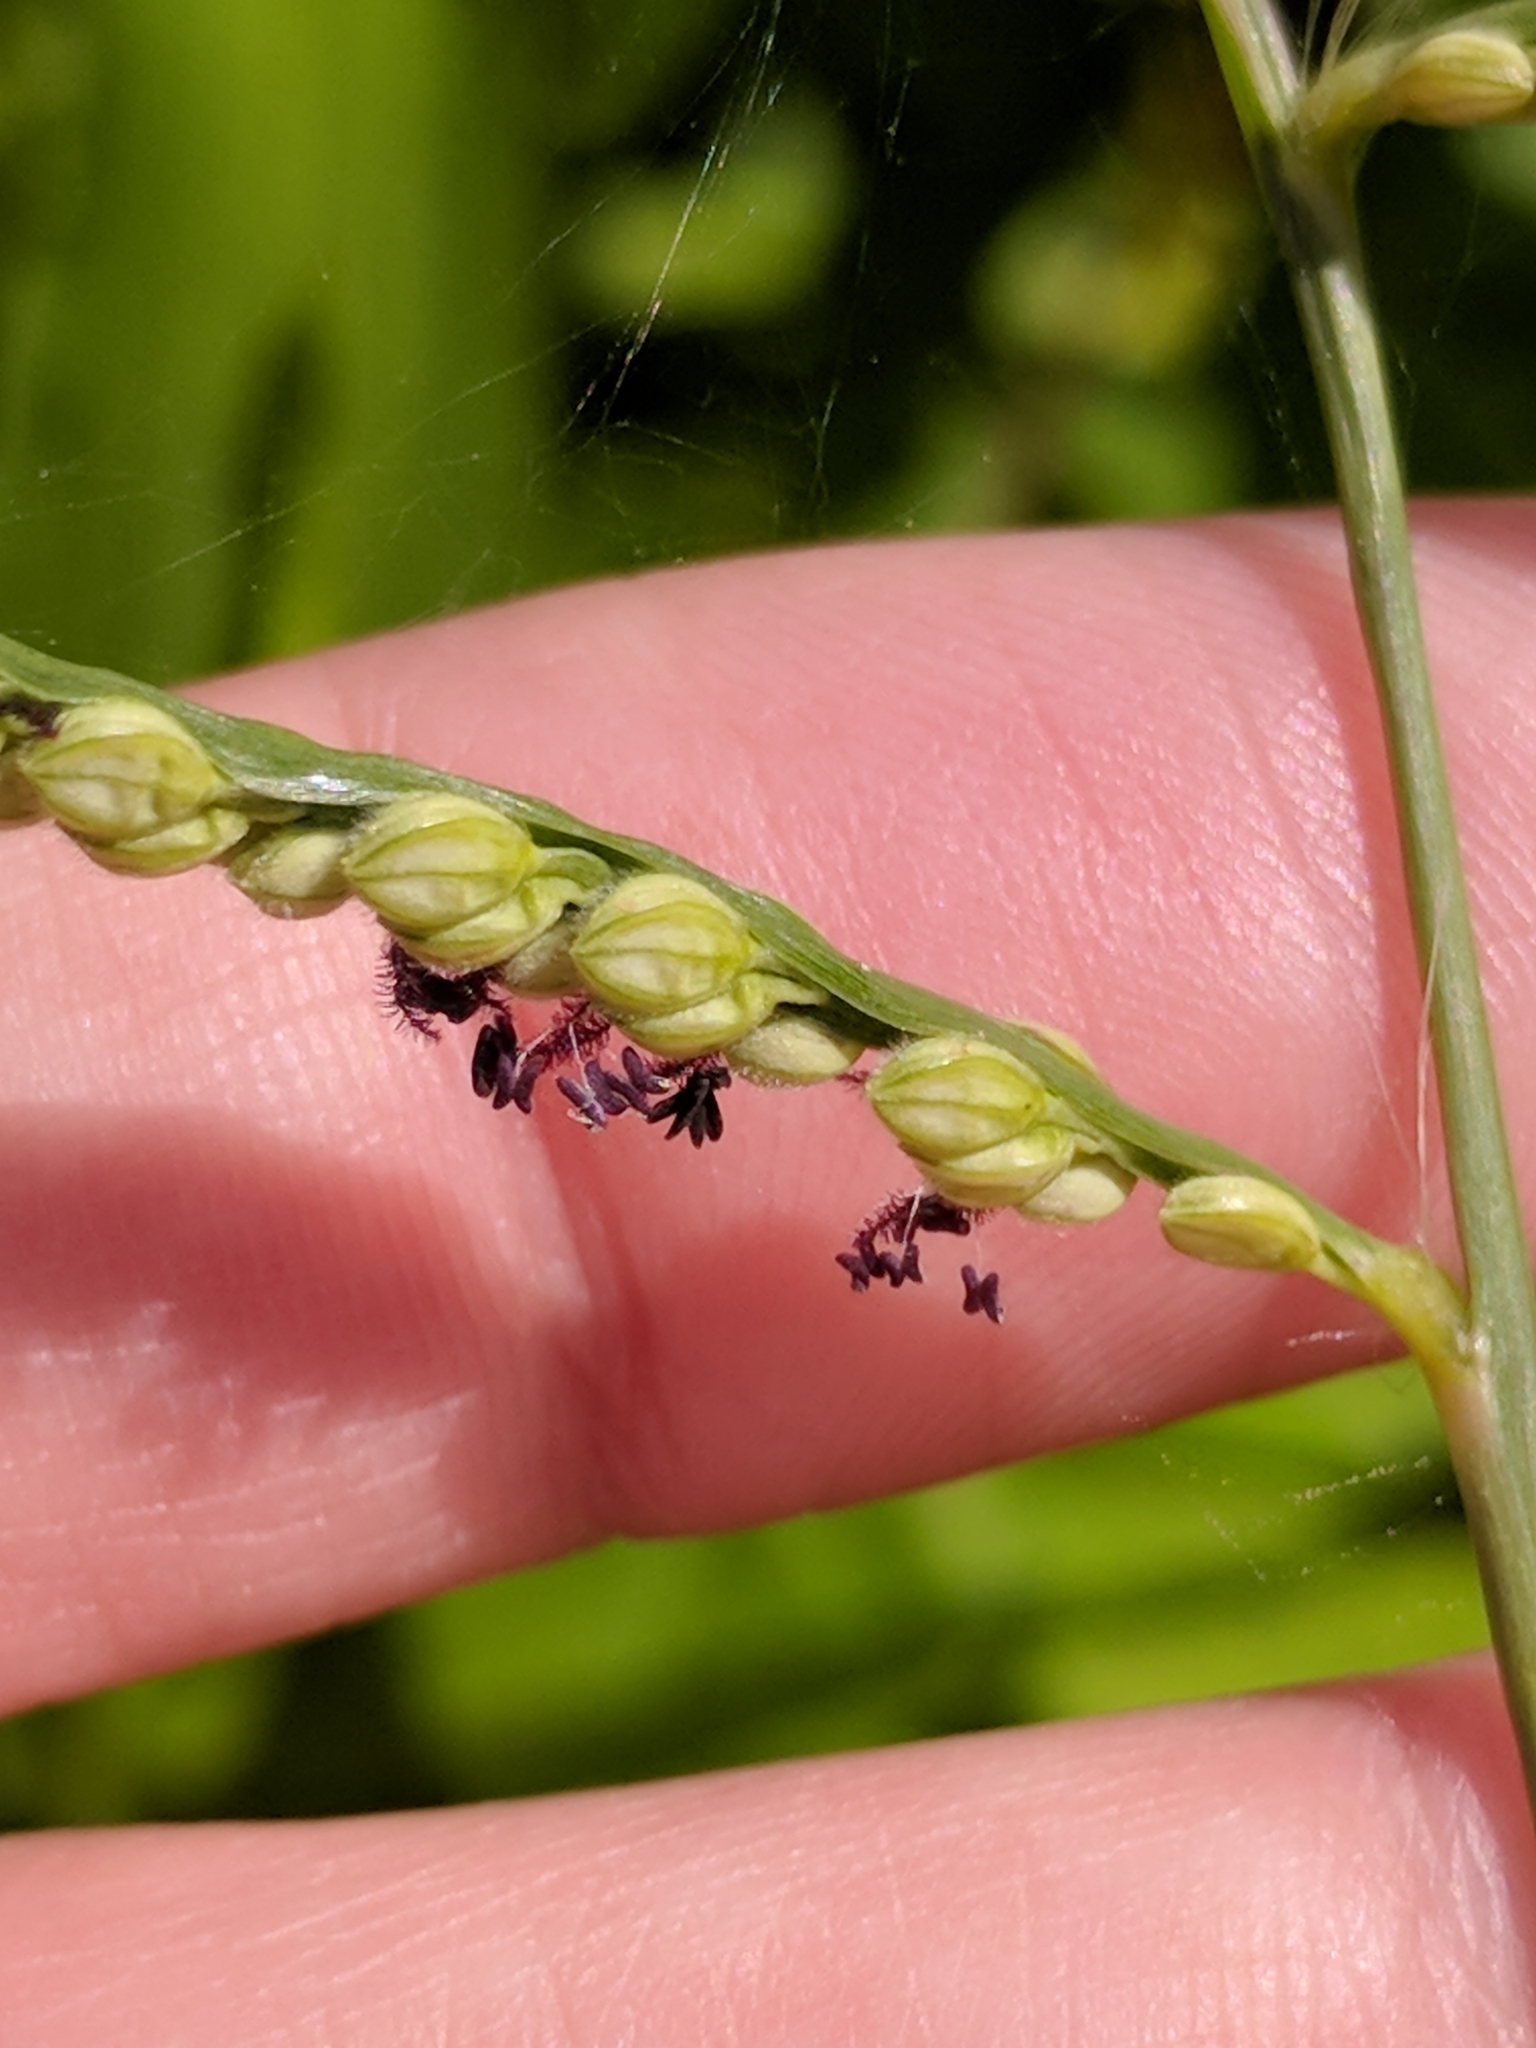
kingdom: Plantae
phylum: Tracheophyta
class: Liliopsida
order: Poales
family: Poaceae
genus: Paspalum
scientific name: Paspalum pubiflorum
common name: Hairy-seed paspalum
